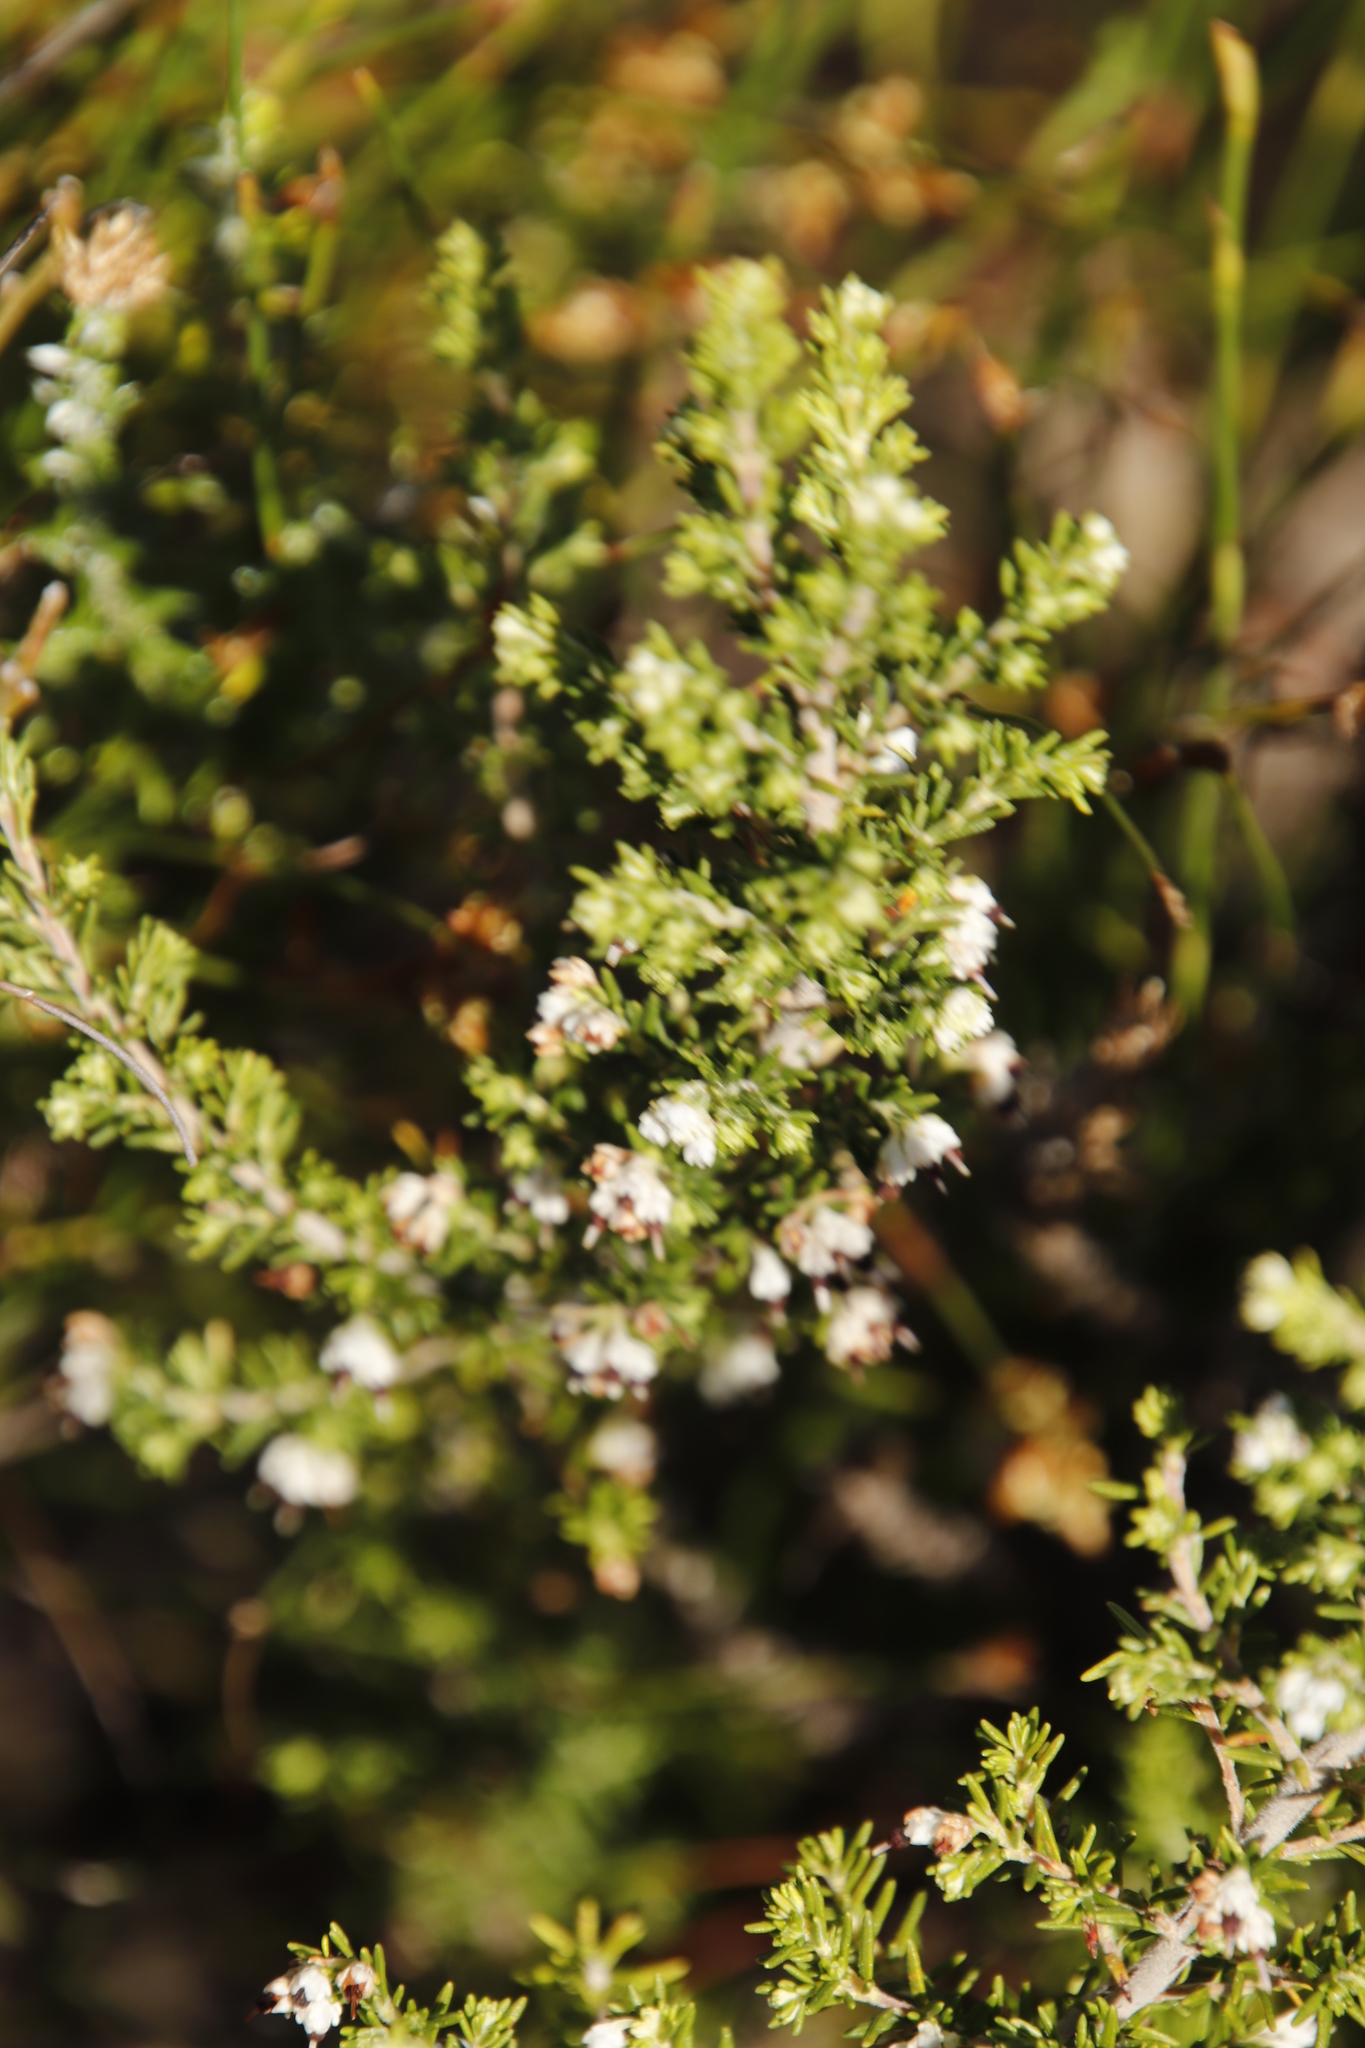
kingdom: Plantae
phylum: Tracheophyta
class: Magnoliopsida
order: Ericales
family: Ericaceae
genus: Erica
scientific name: Erica imbricata
